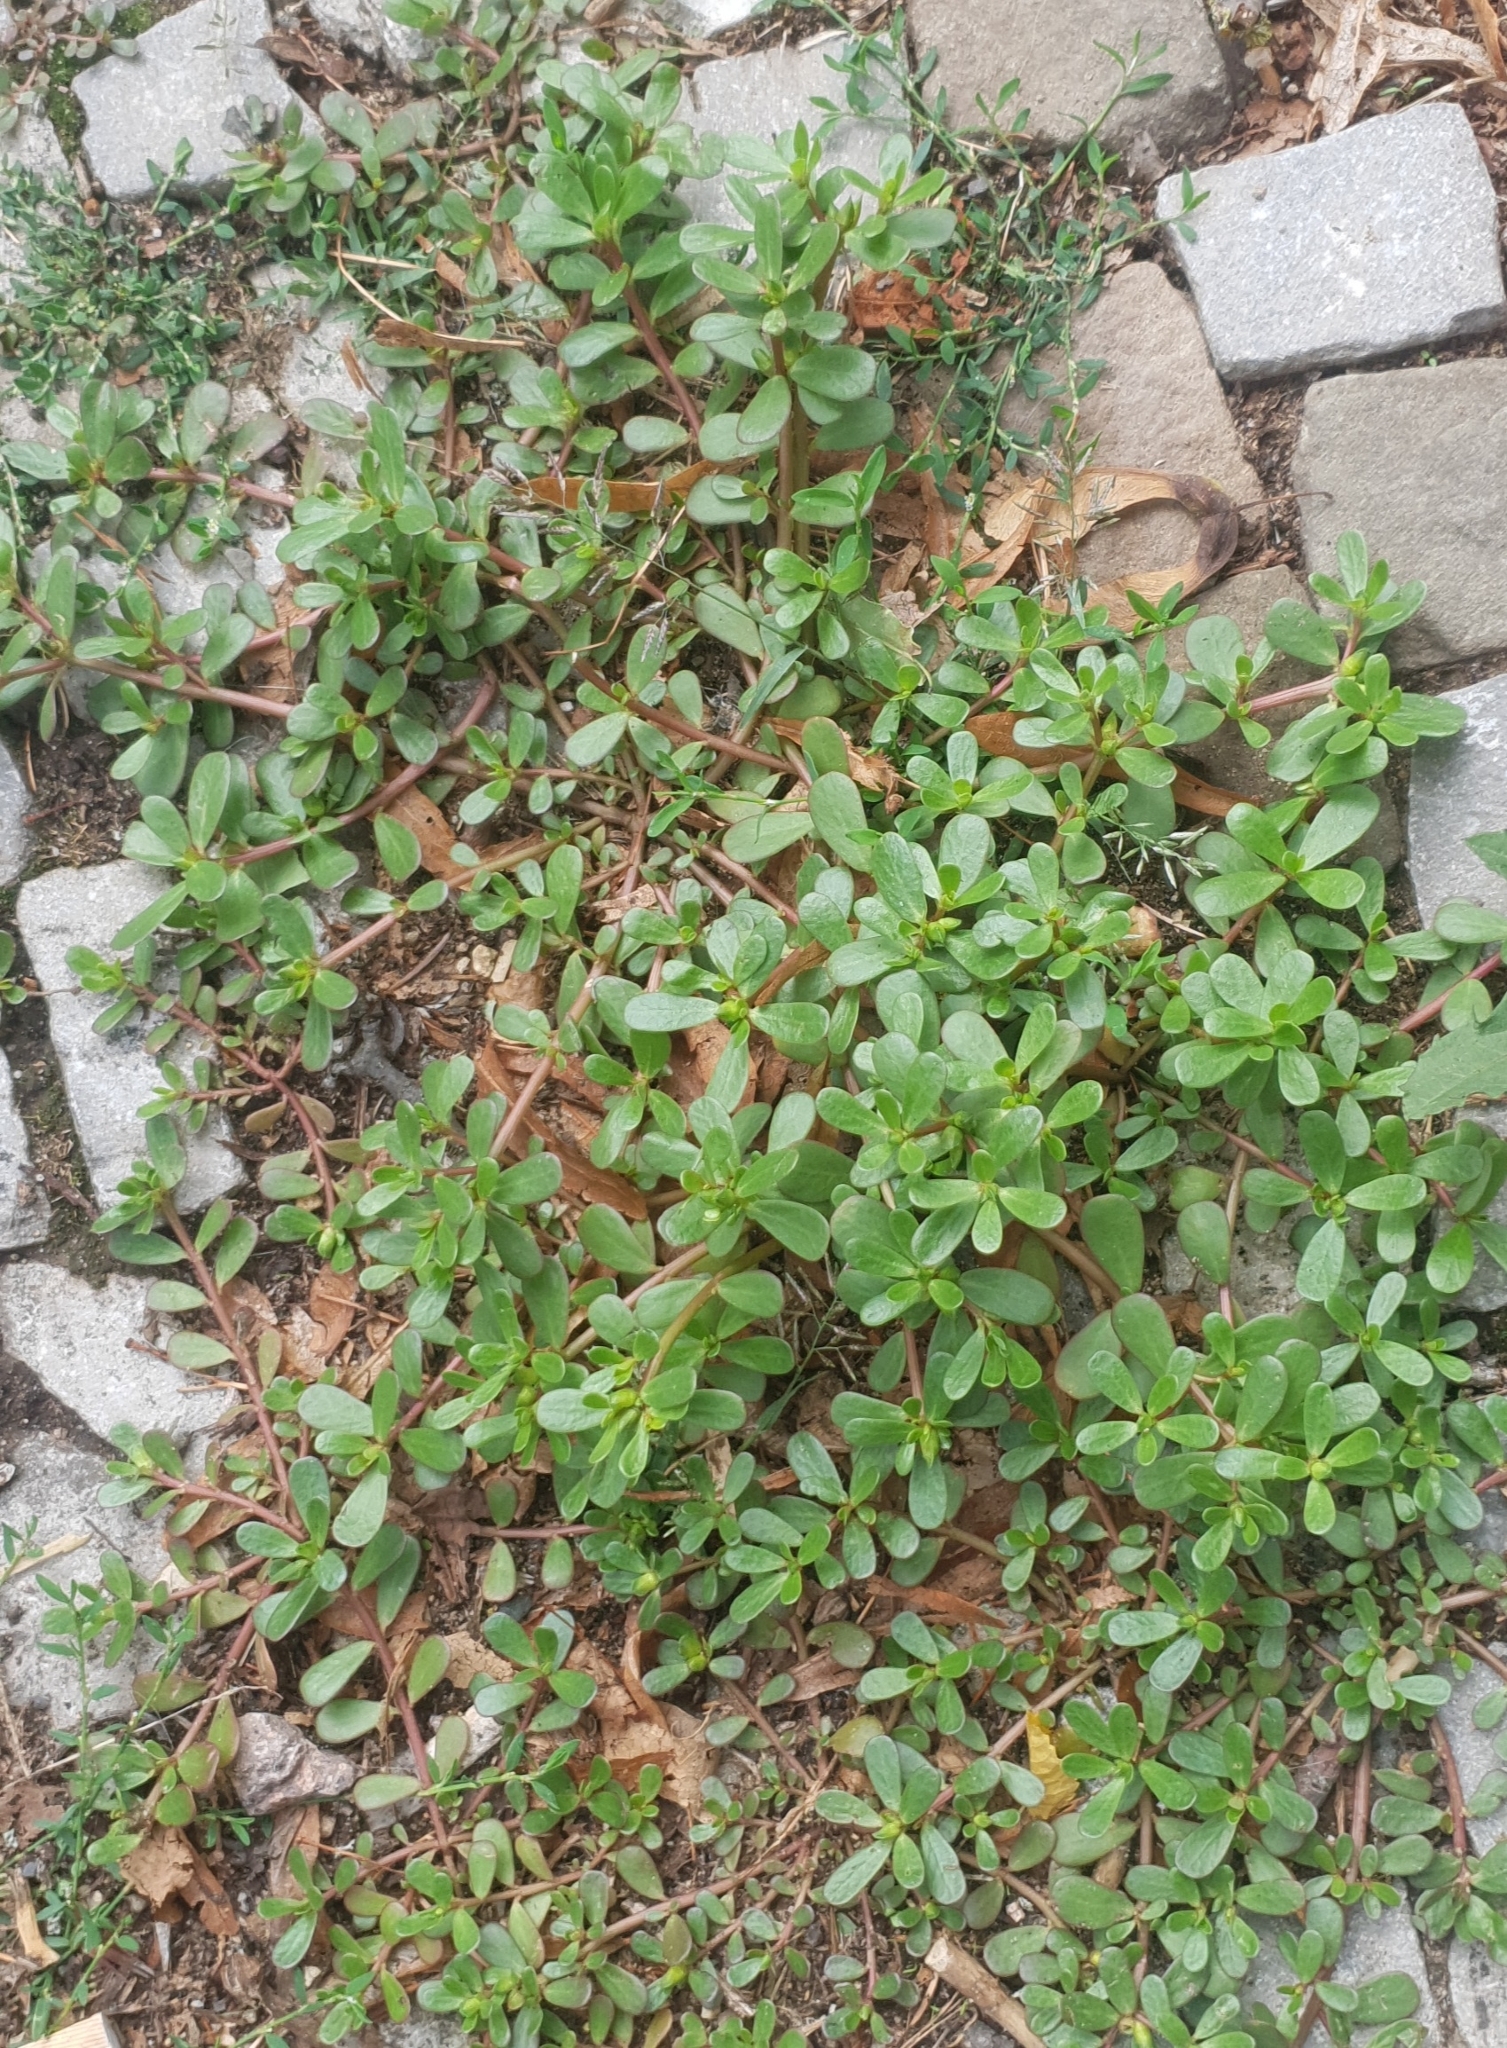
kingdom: Plantae
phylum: Tracheophyta
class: Magnoliopsida
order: Caryophyllales
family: Portulacaceae
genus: Portulaca
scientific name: Portulaca oleracea
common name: Common purslane
